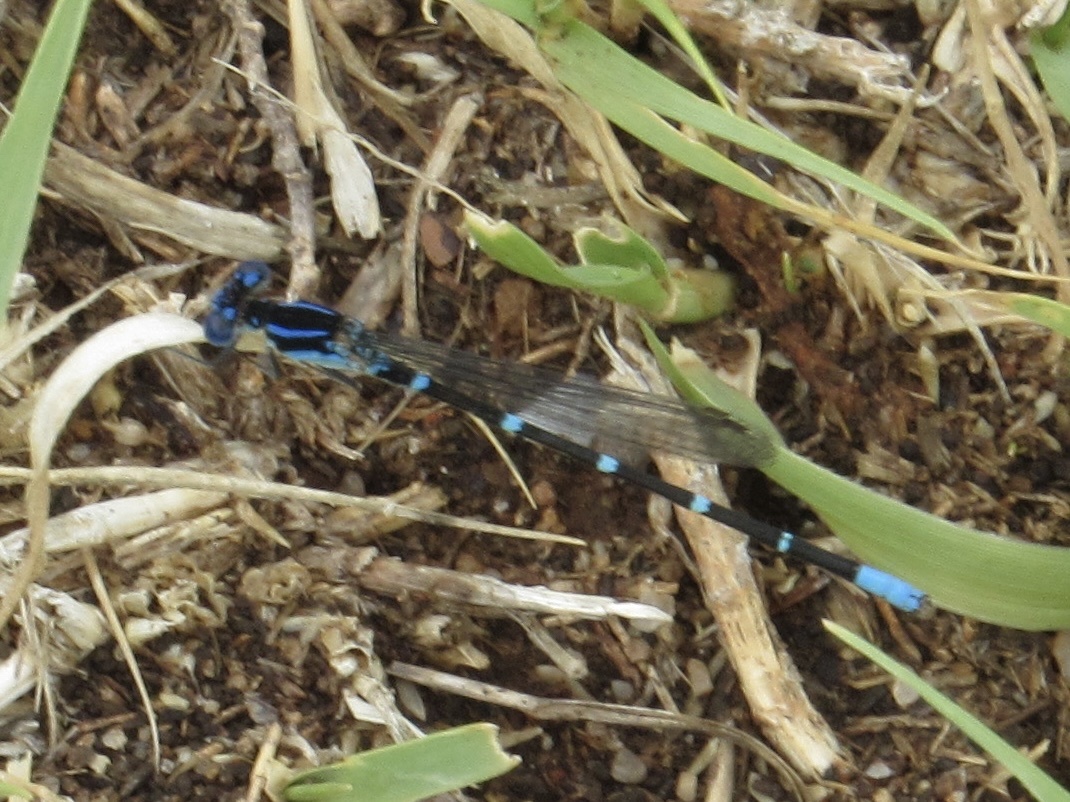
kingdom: Animalia
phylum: Arthropoda
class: Insecta
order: Odonata
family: Coenagrionidae
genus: Argia
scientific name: Argia sedula
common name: Blue-ringed dancer
